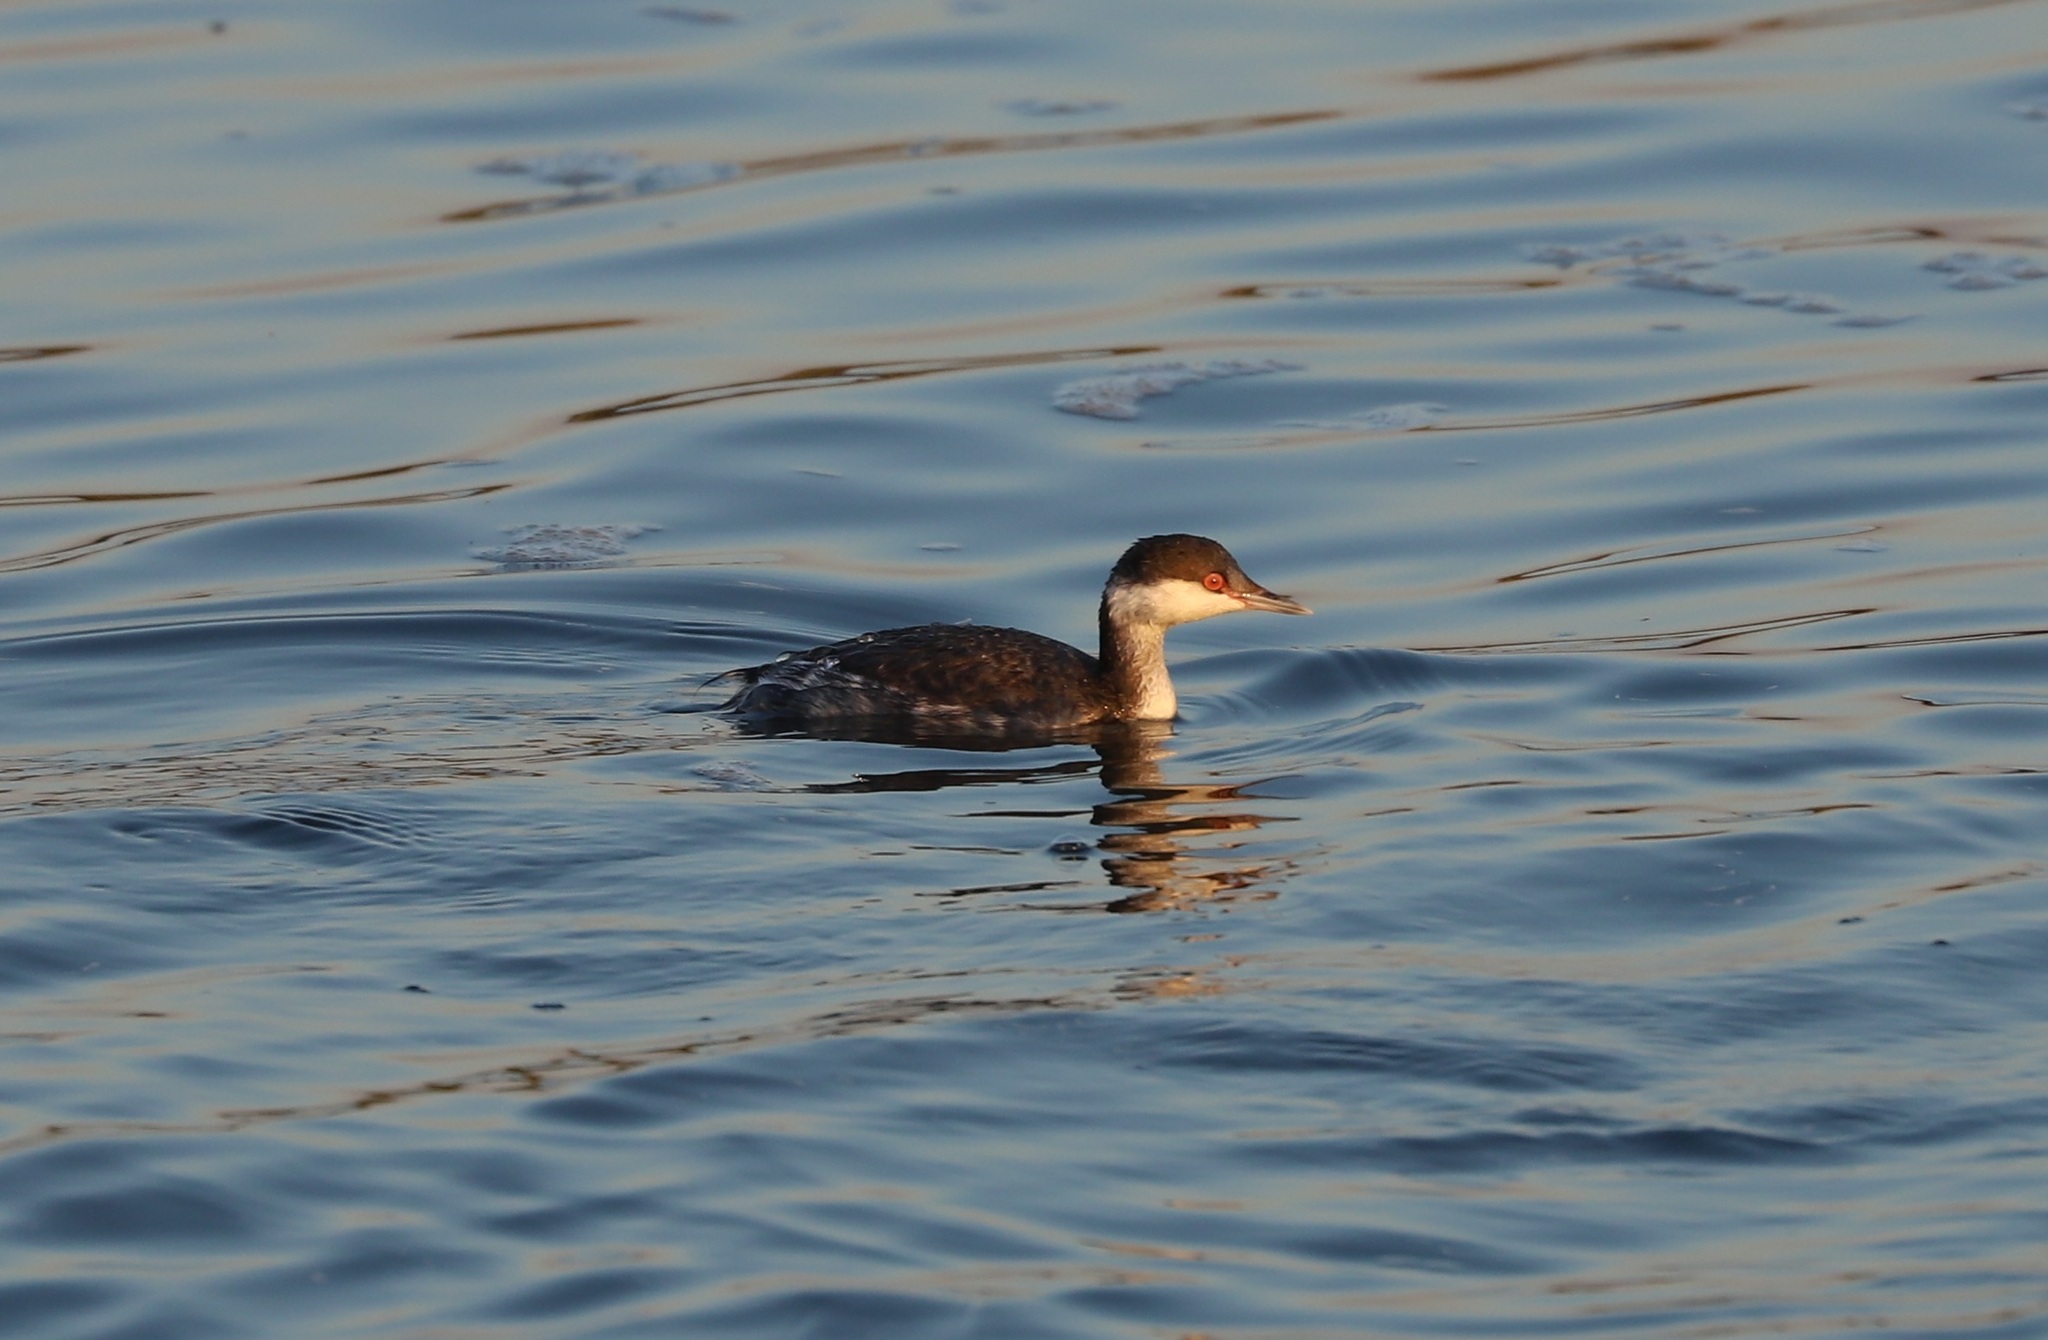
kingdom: Animalia
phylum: Chordata
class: Aves
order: Podicipediformes
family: Podicipedidae
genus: Podiceps
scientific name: Podiceps nigricollis
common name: Black-necked grebe
